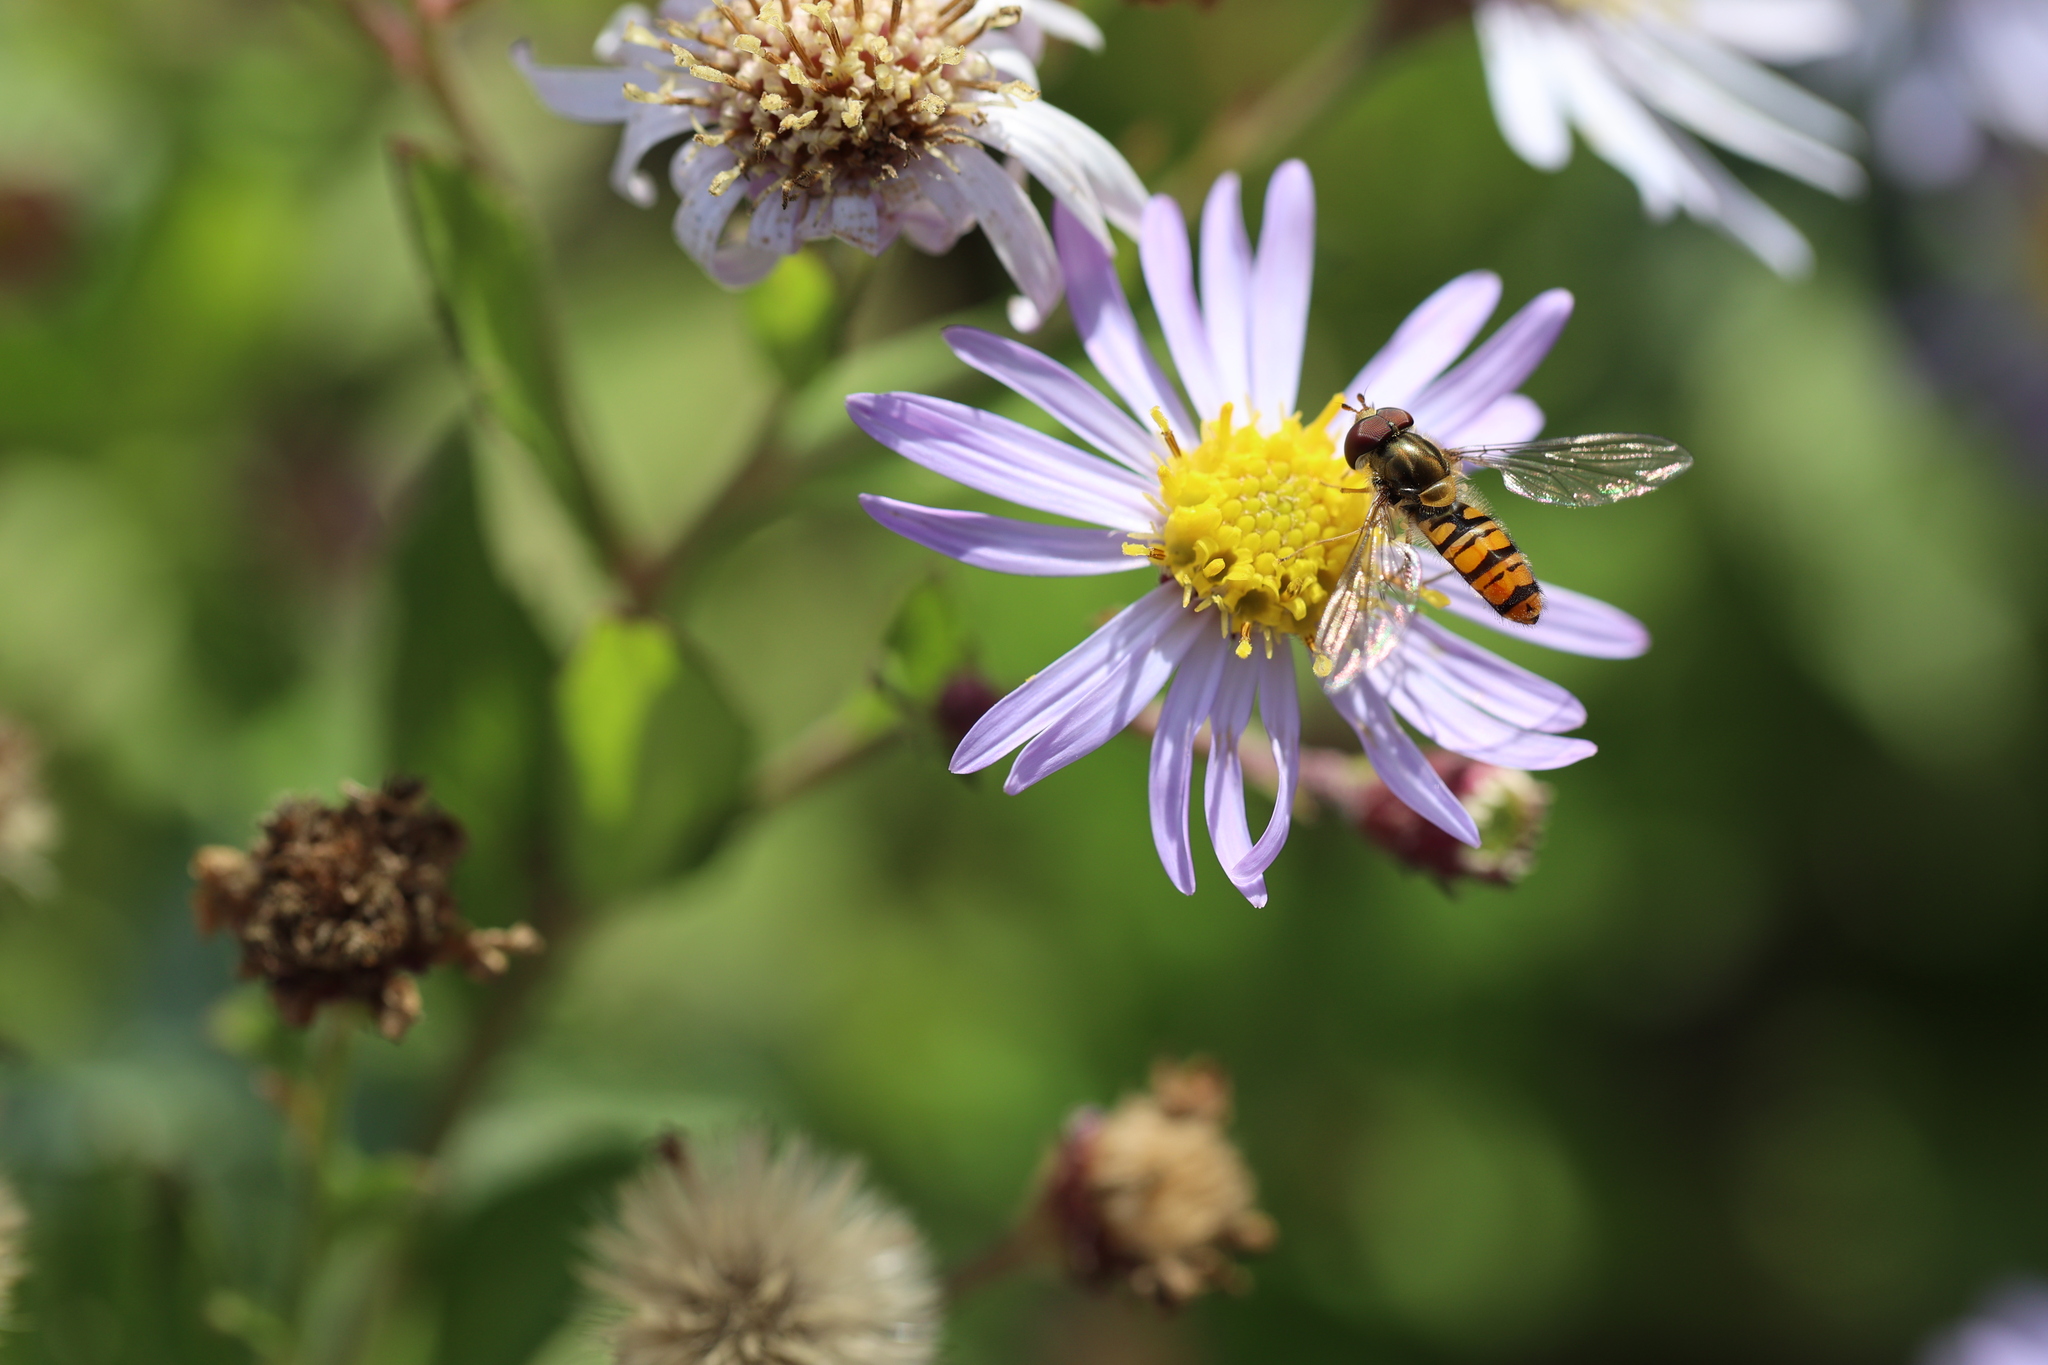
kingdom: Animalia
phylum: Arthropoda
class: Insecta
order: Diptera
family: Syrphidae
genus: Episyrphus
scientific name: Episyrphus balteatus
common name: Marmalade hoverfly
